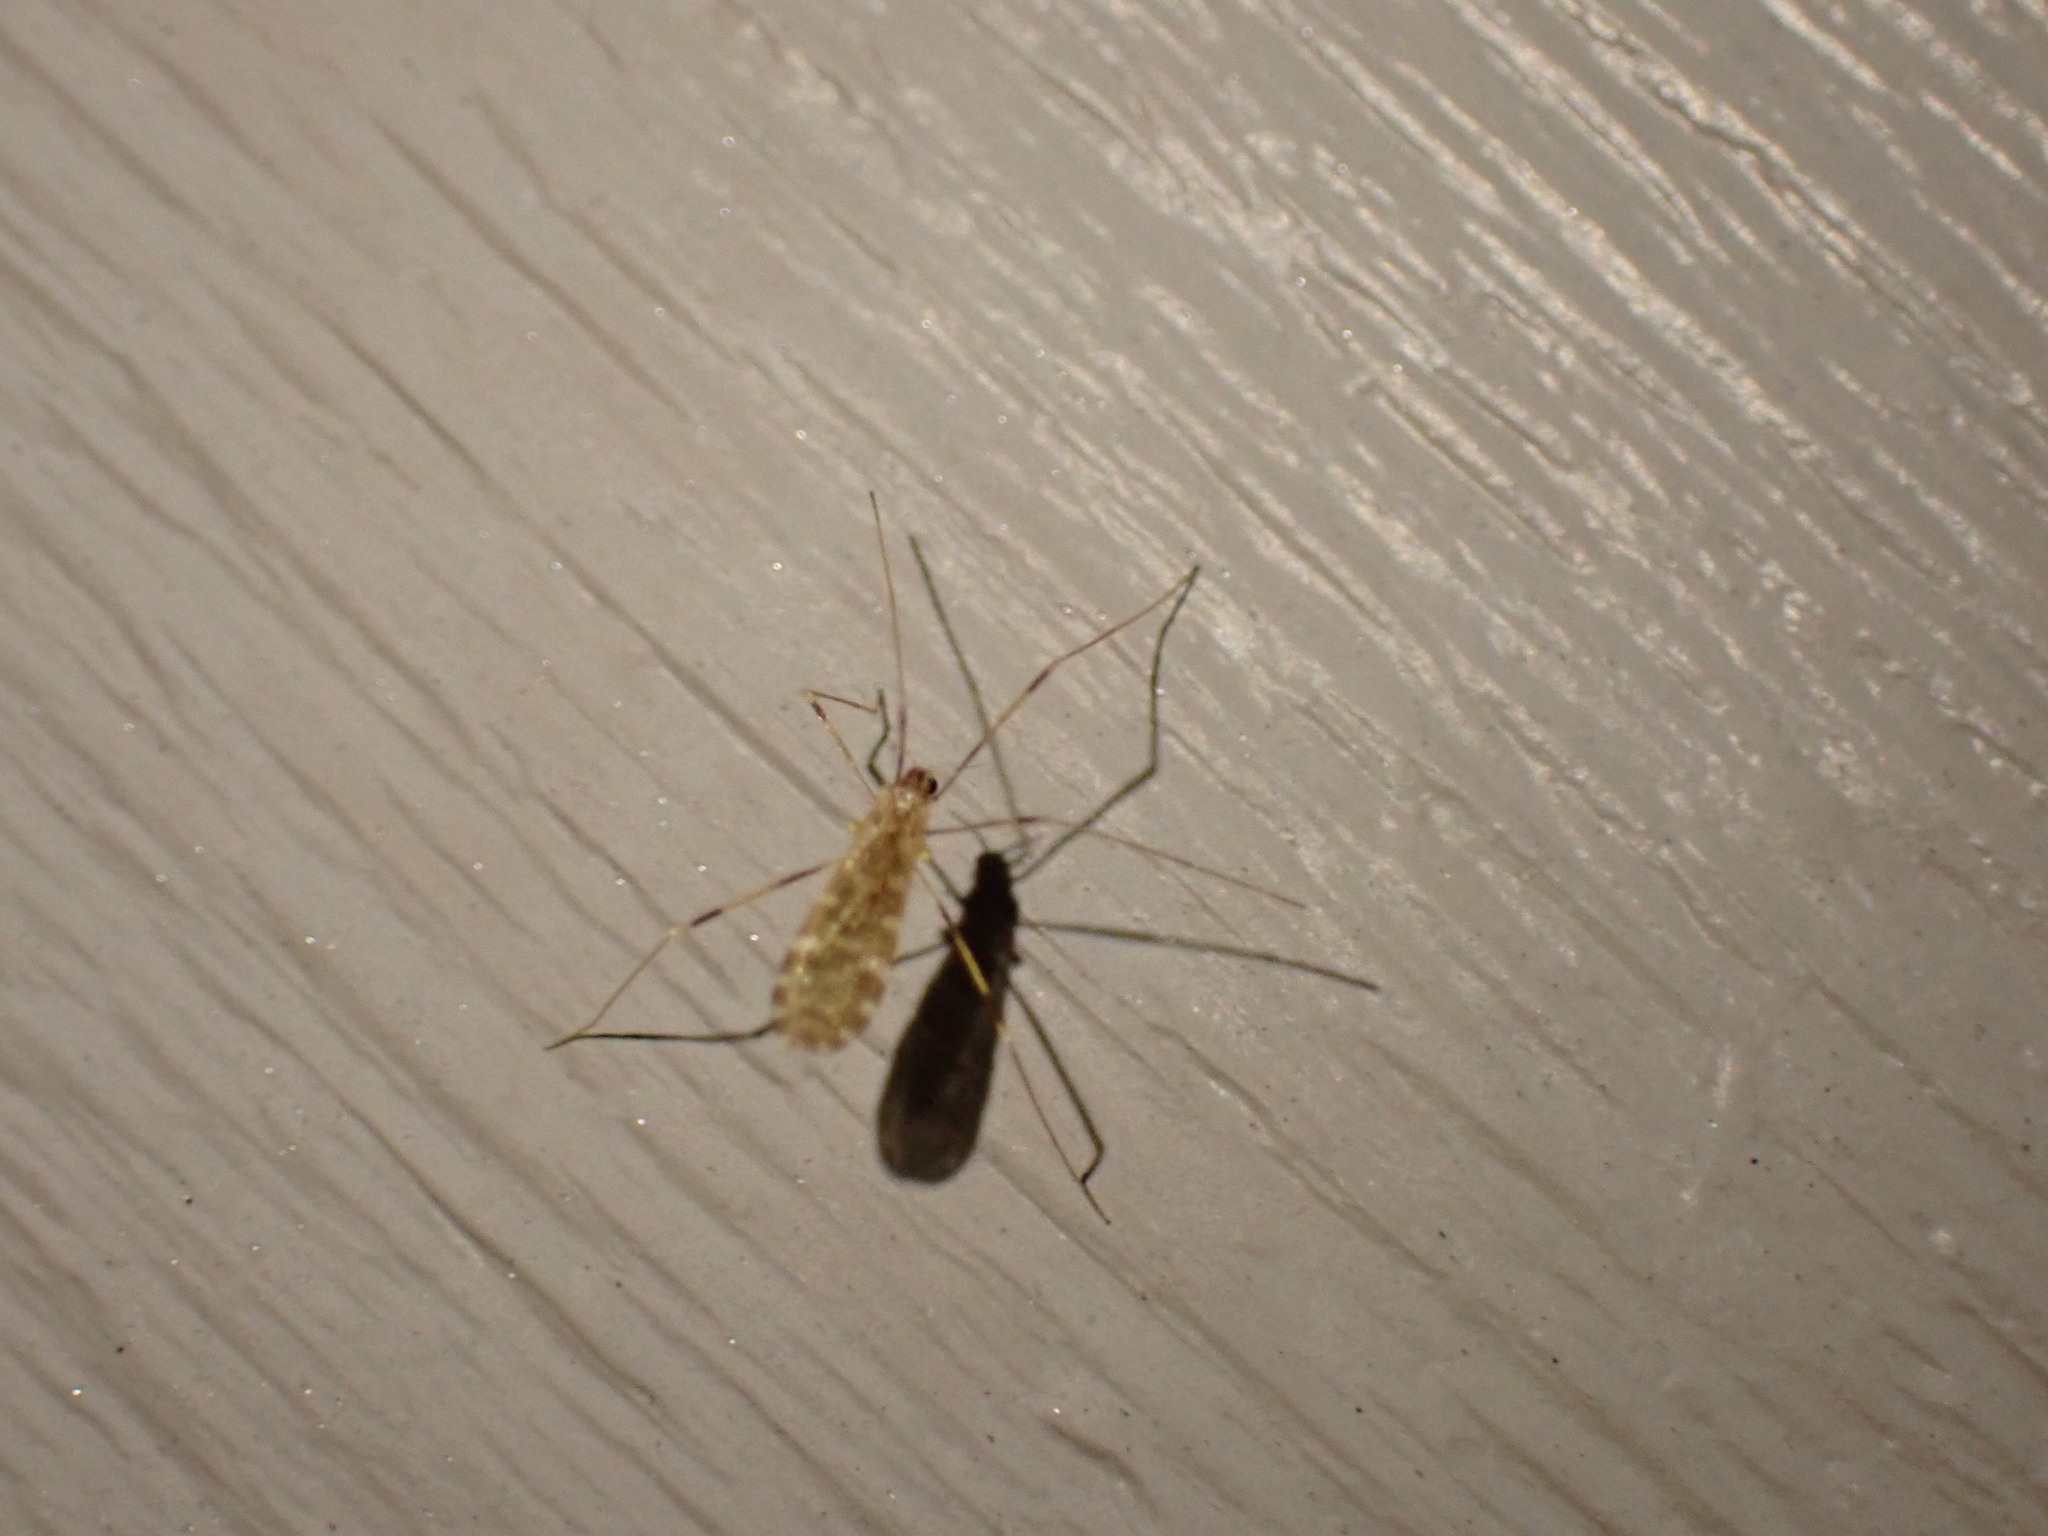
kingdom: Animalia
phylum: Arthropoda
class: Insecta
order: Diptera
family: Limoniidae
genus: Erioptera
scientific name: Erioptera caliptera
